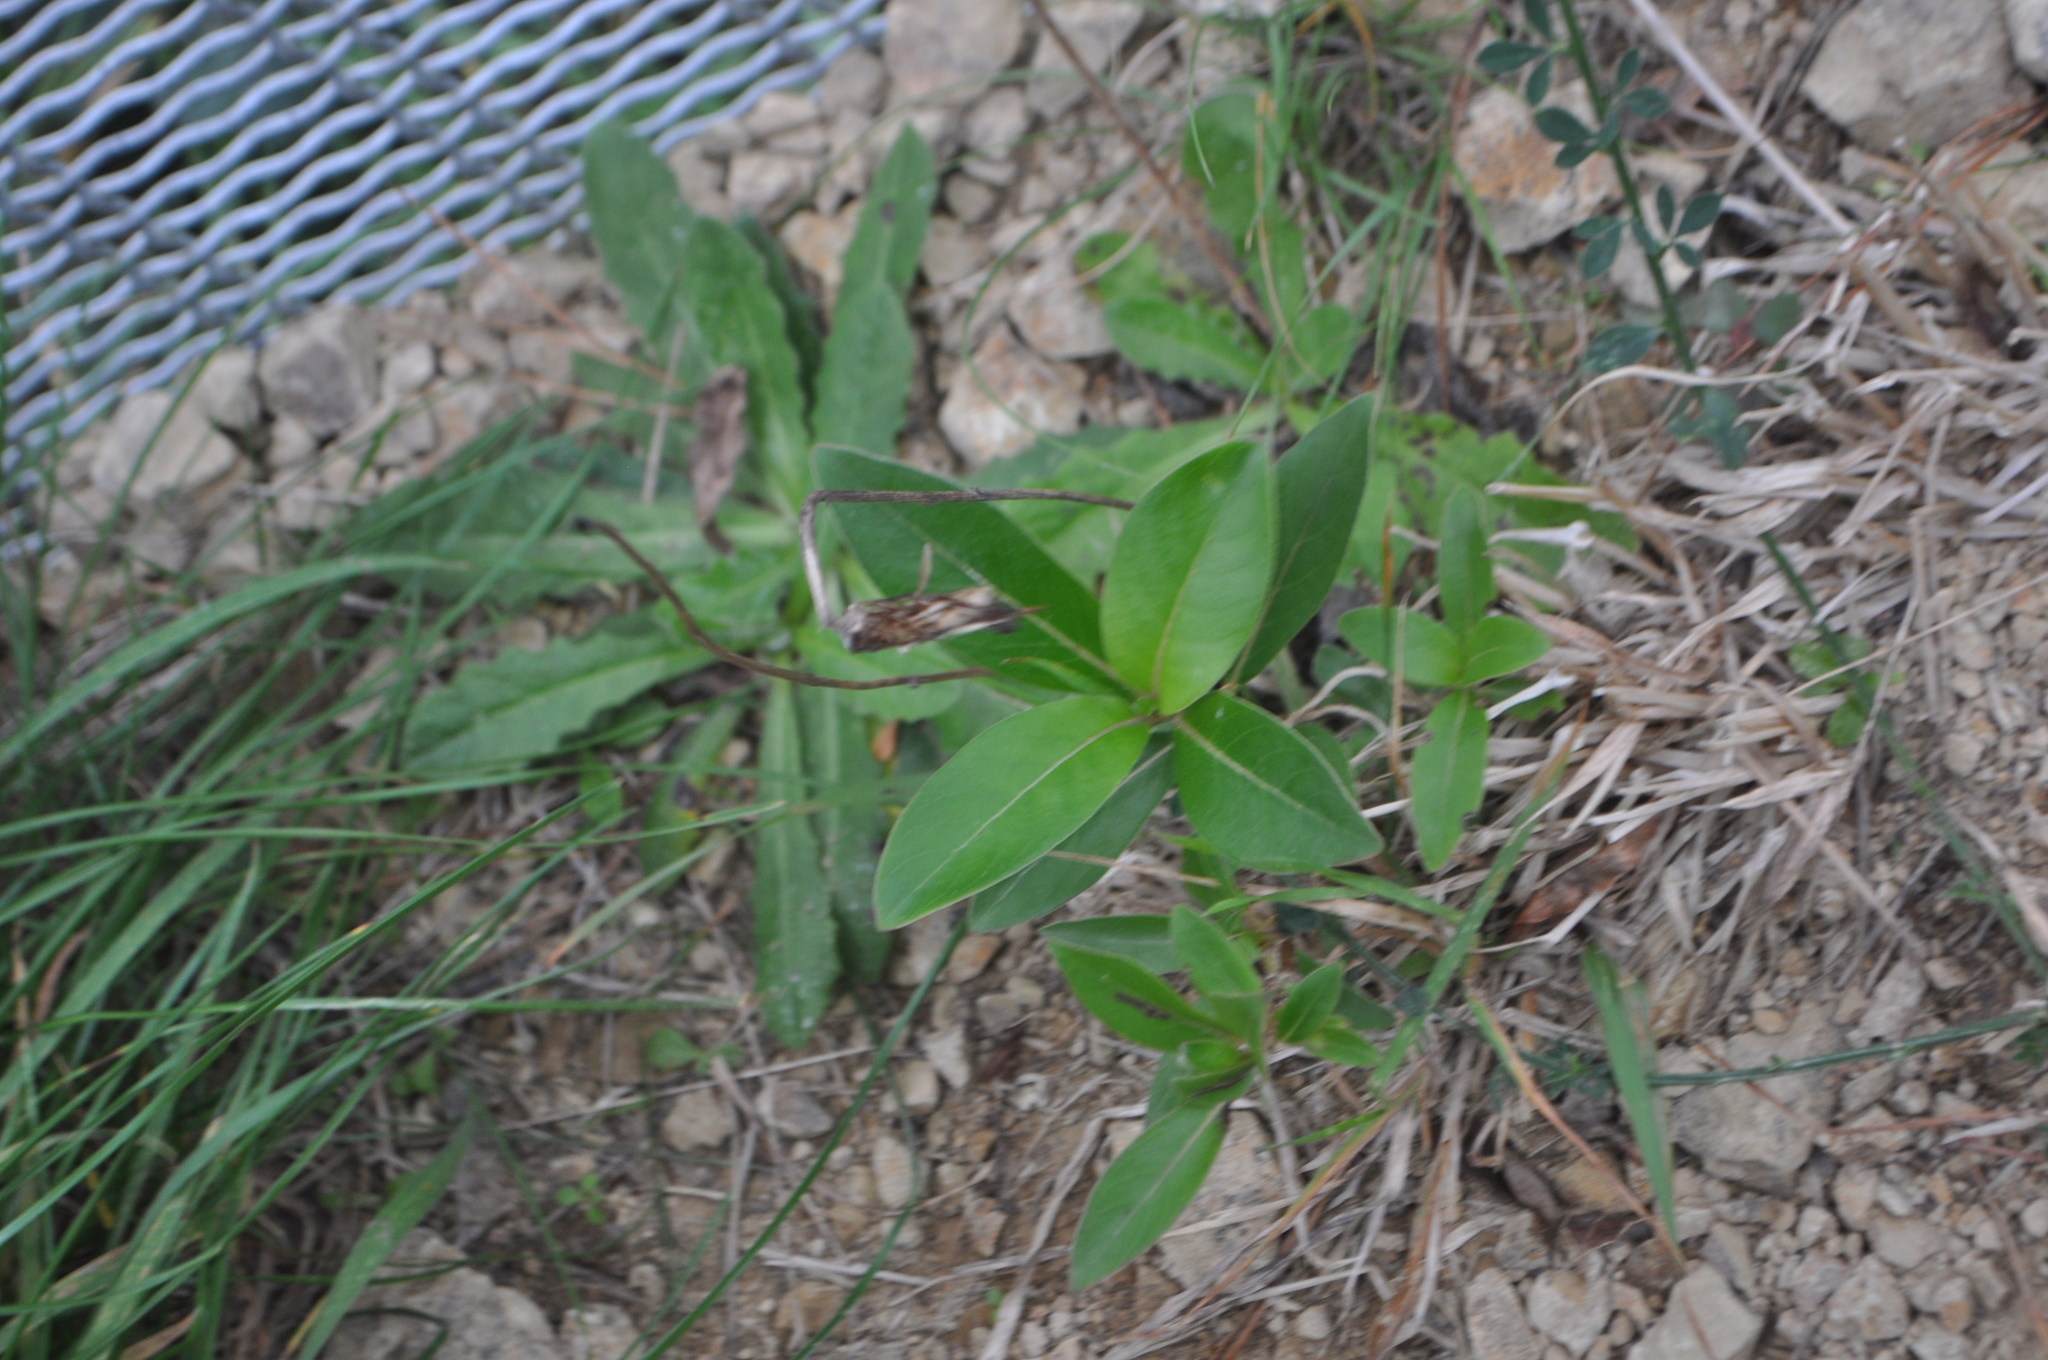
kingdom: Plantae
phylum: Tracheophyta
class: Magnoliopsida
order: Gentianales
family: Rubiaceae
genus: Coprosma
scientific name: Coprosma robusta
